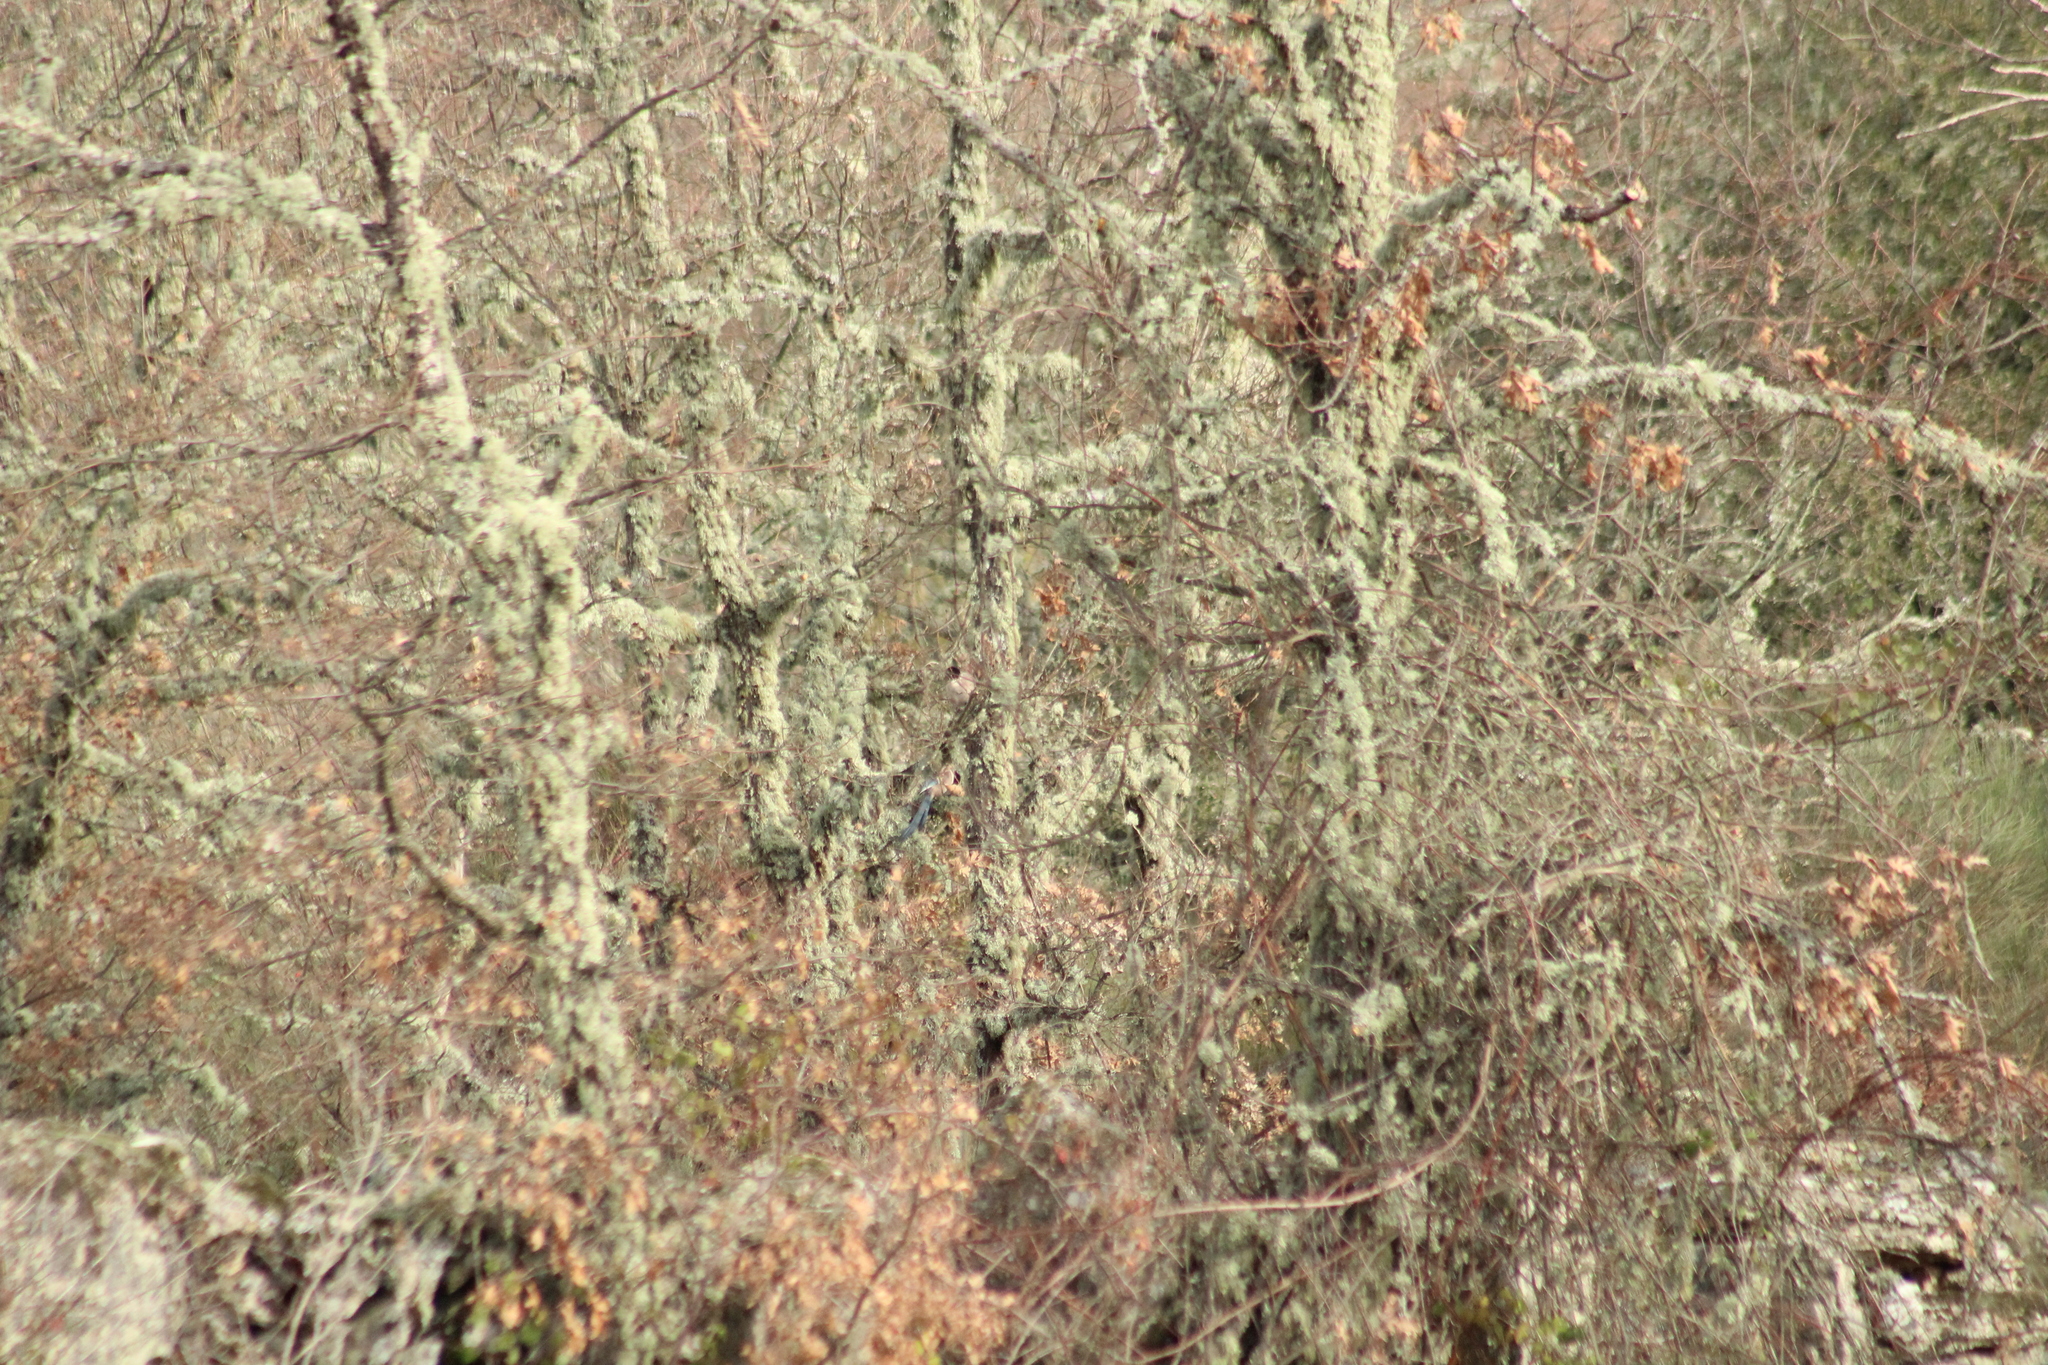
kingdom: Animalia
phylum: Chordata
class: Aves
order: Passeriformes
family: Corvidae
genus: Cyanopica
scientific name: Cyanopica cooki
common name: Iberian magpie
